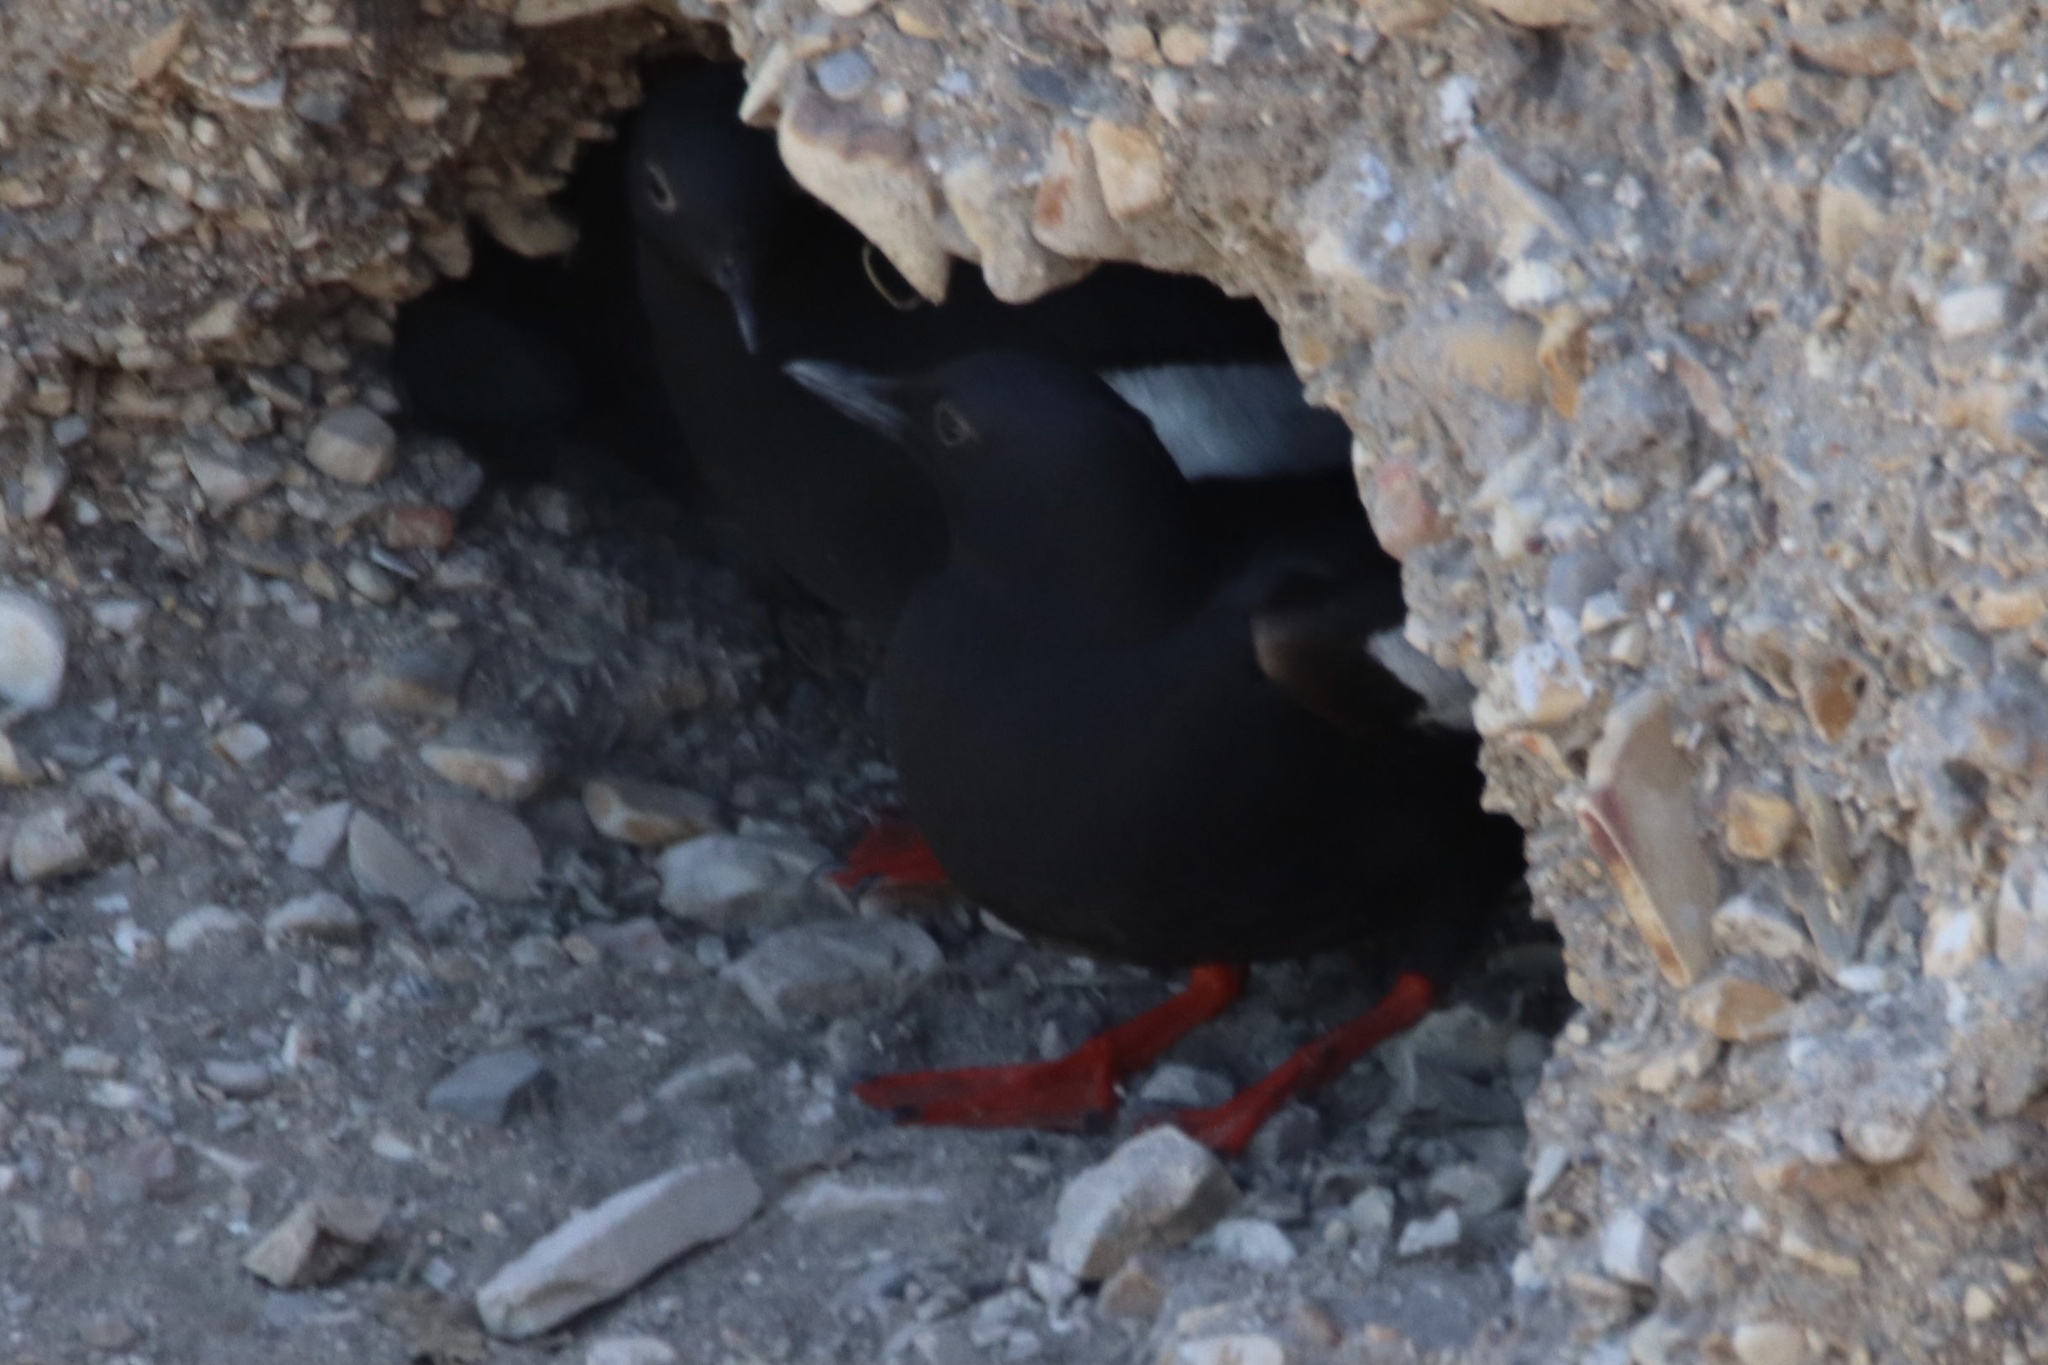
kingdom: Animalia
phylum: Chordata
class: Aves
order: Charadriiformes
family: Alcidae
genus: Cepphus
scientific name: Cepphus columba
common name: Pigeon guillemot
